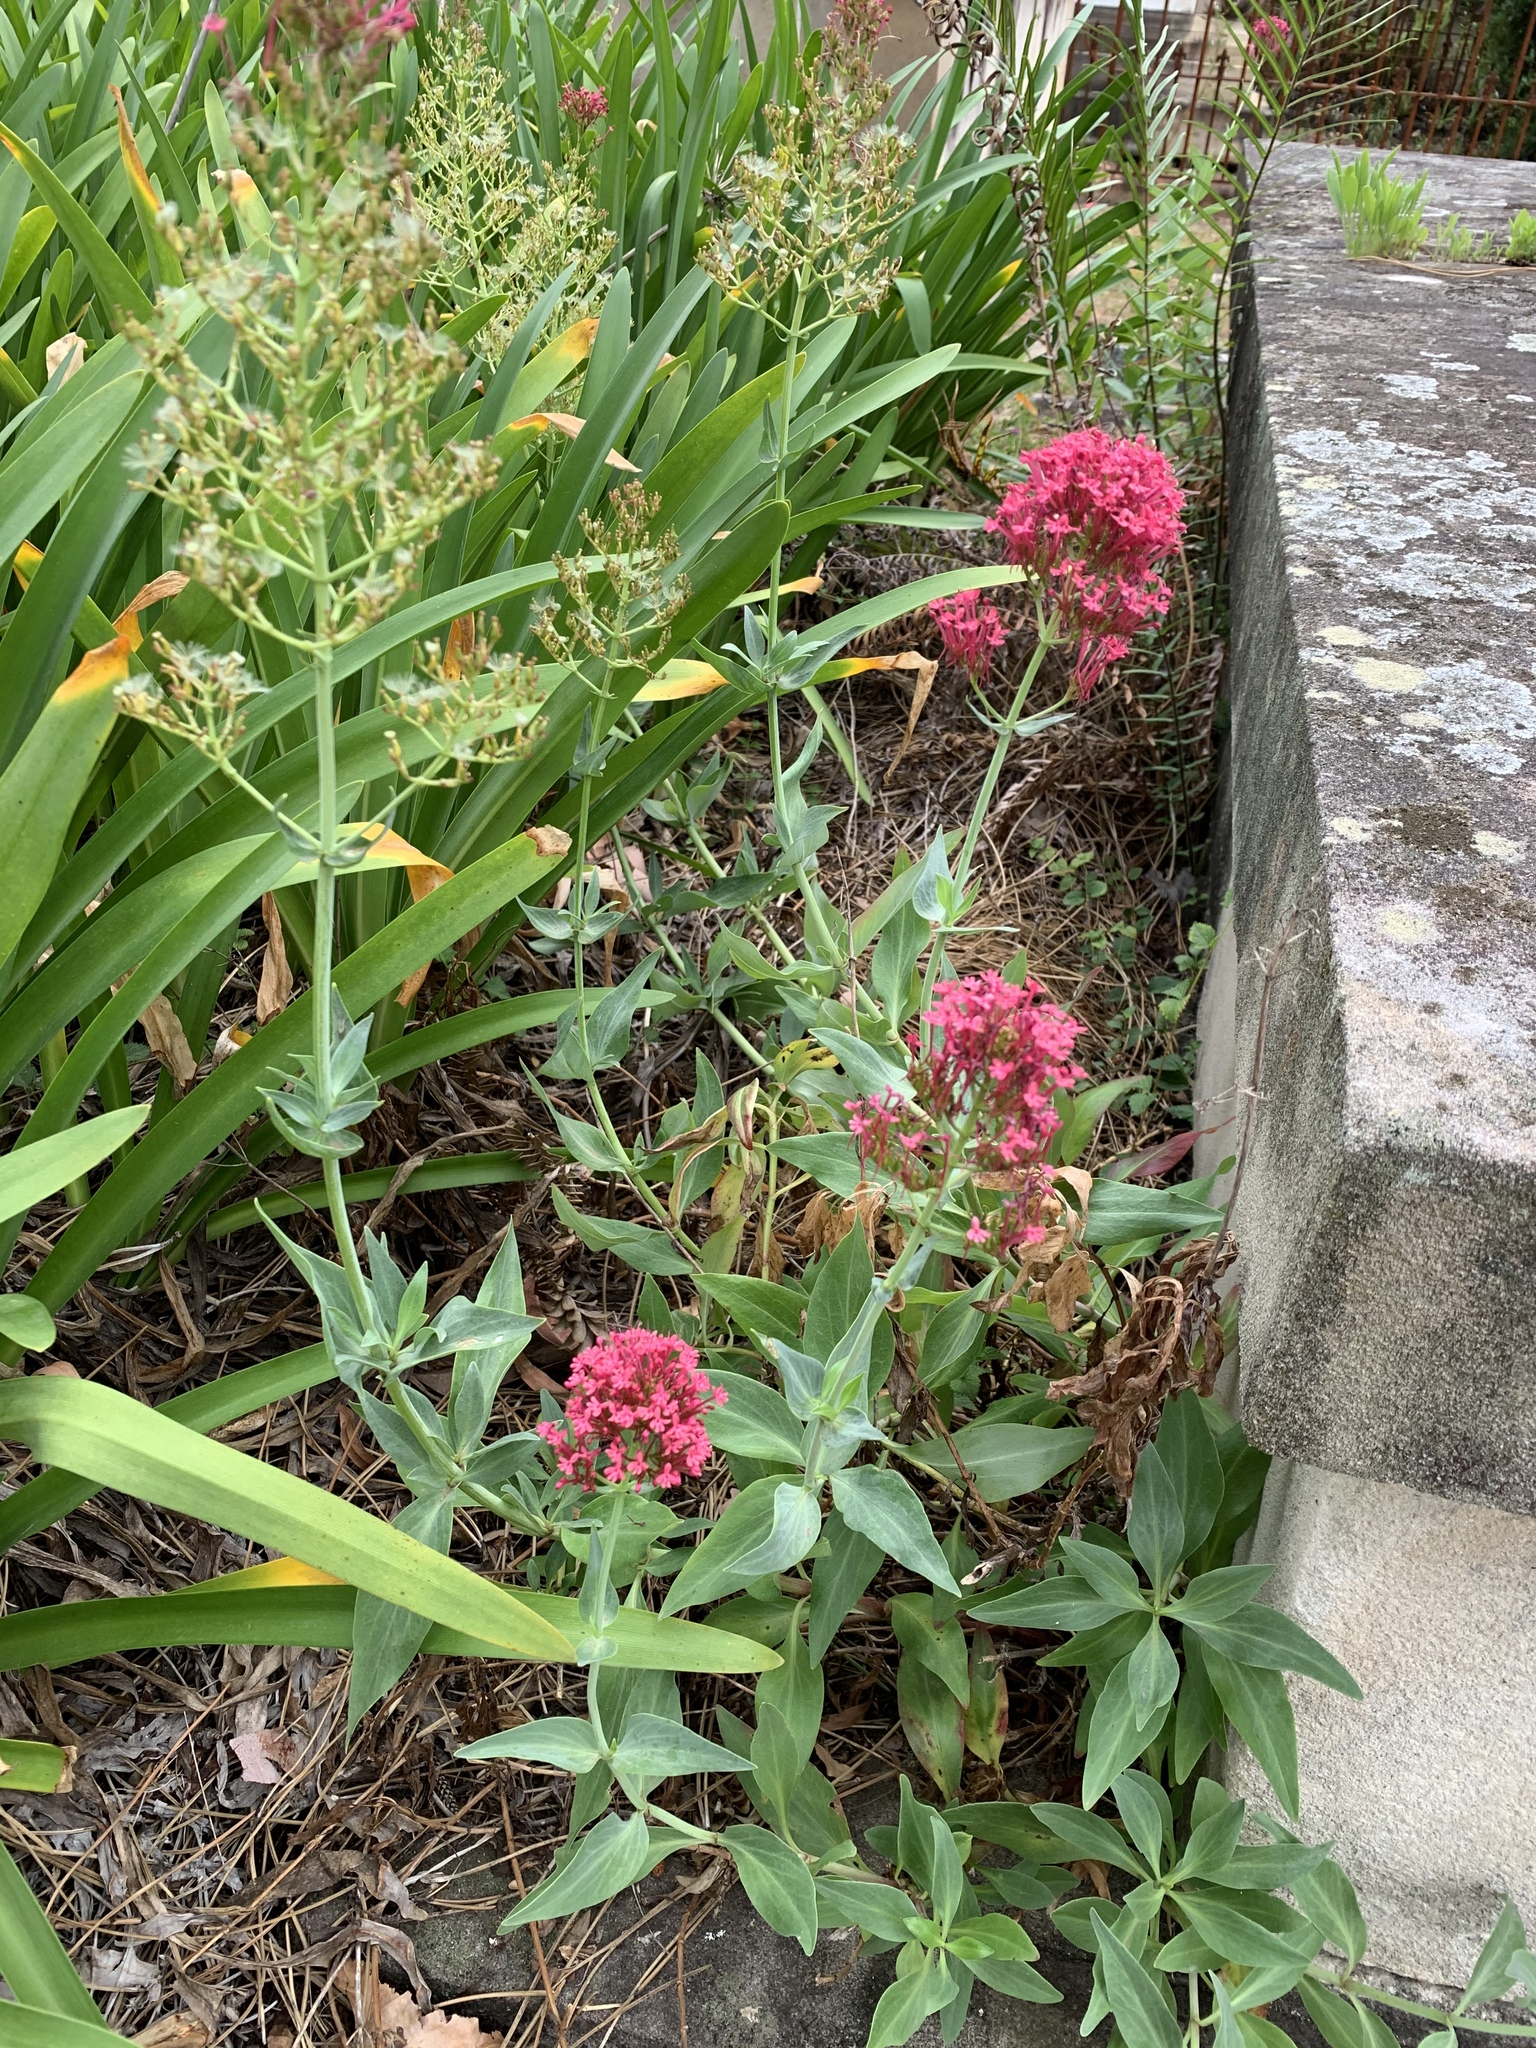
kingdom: Plantae
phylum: Tracheophyta
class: Magnoliopsida
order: Dipsacales
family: Caprifoliaceae
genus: Centranthus
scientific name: Centranthus ruber
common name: Red valerian
